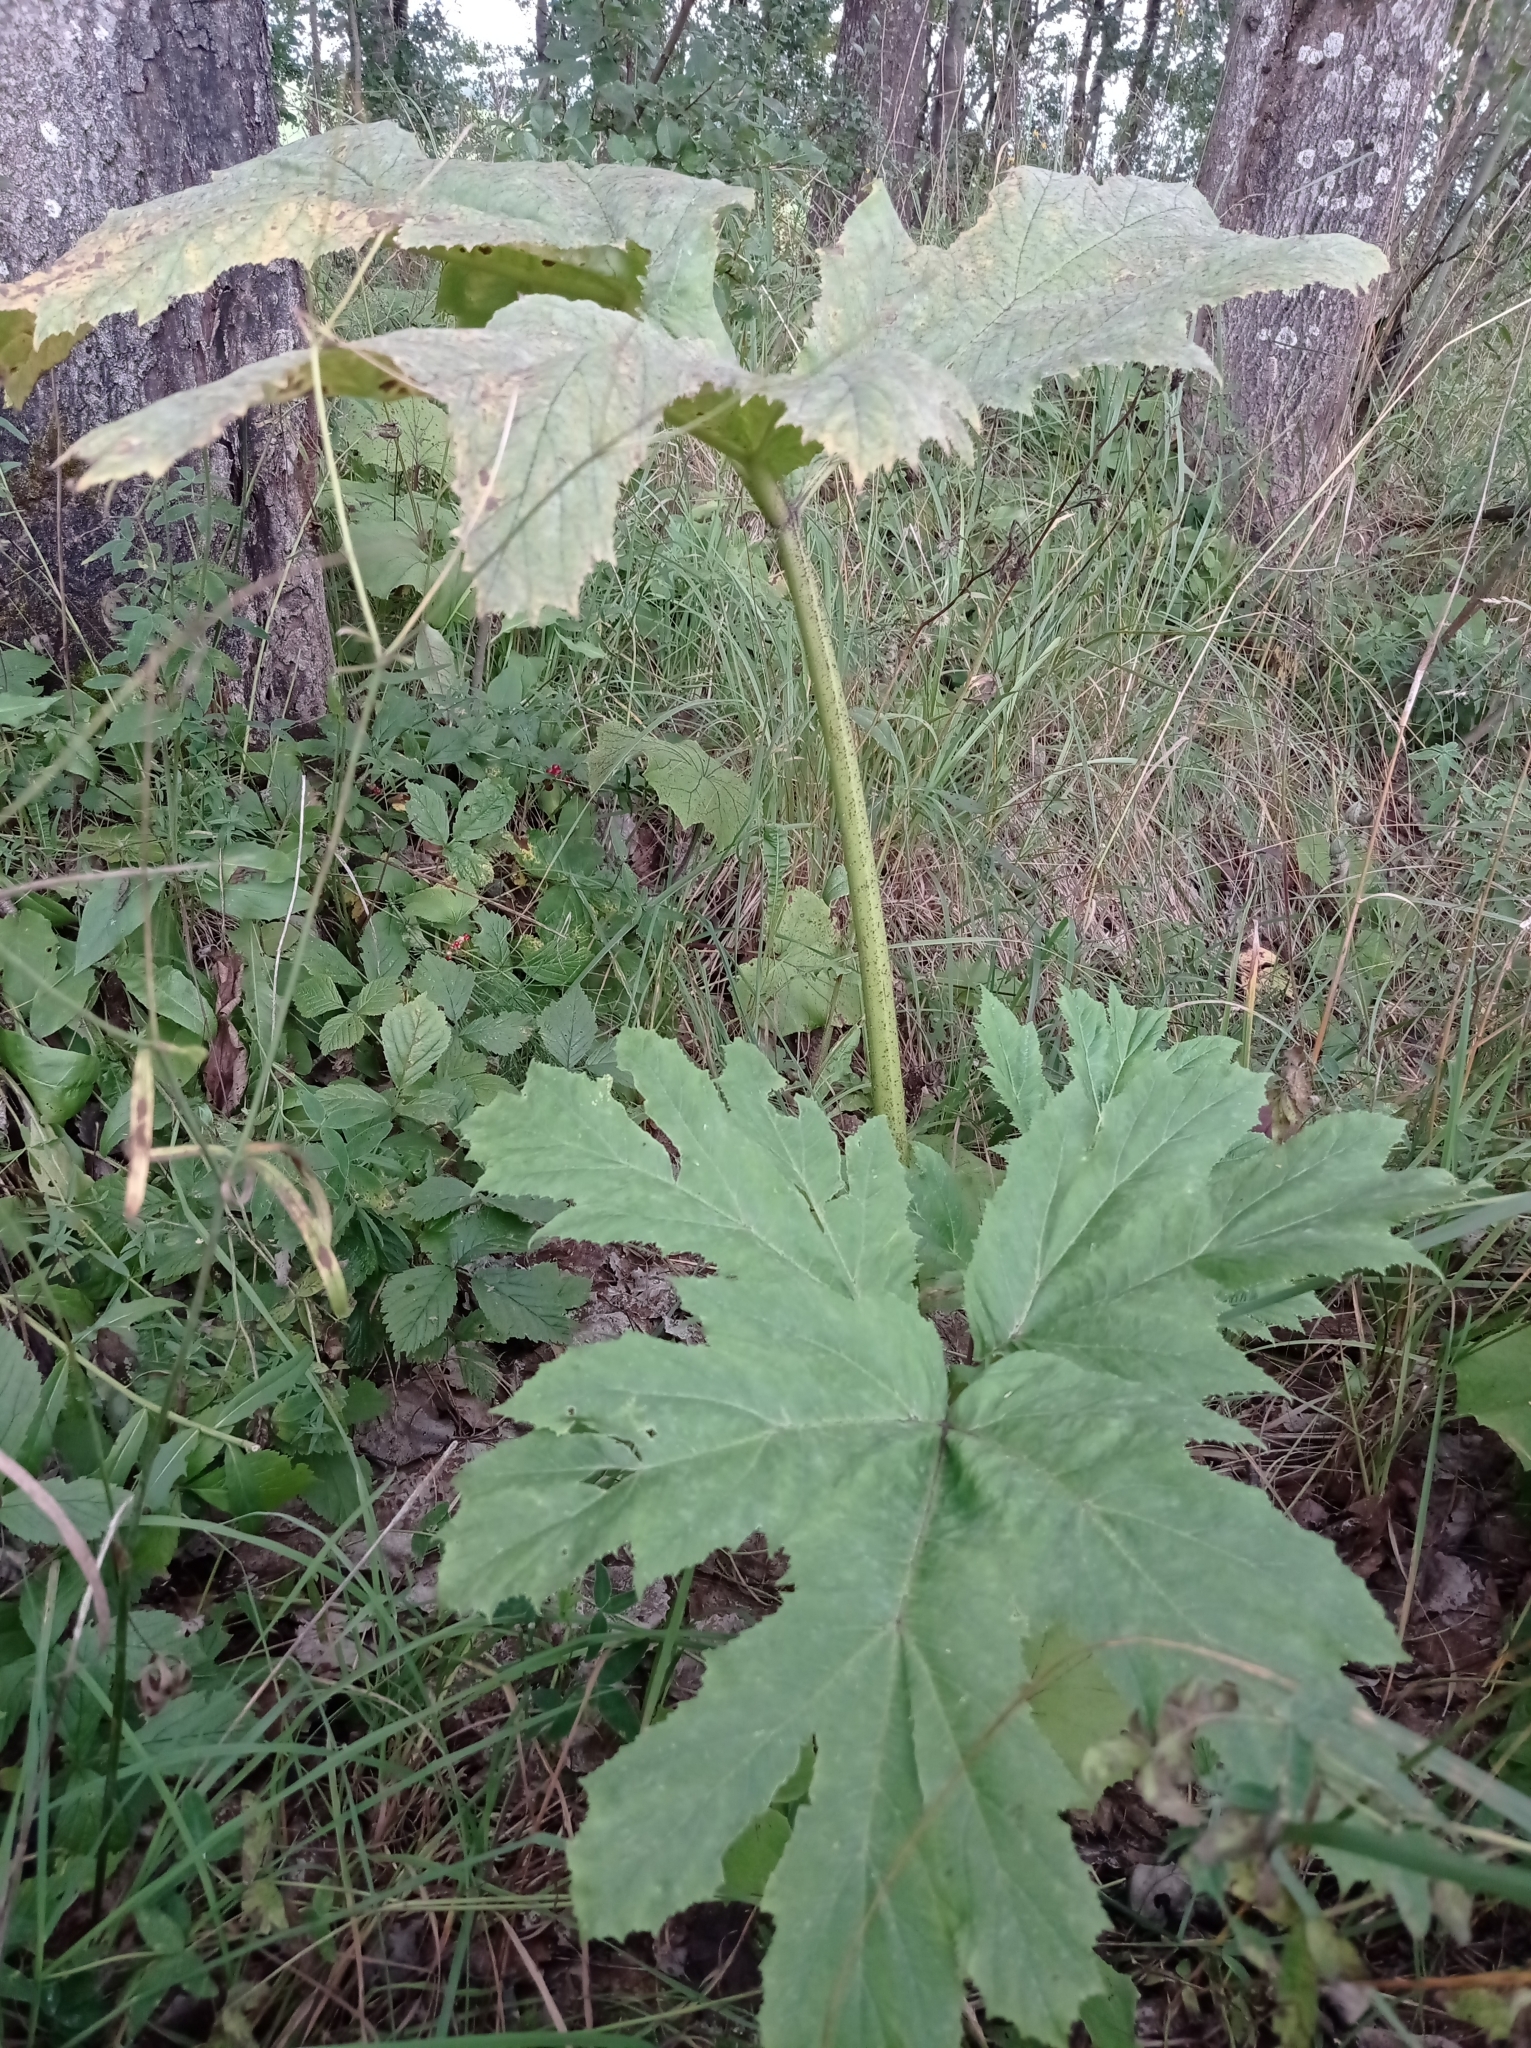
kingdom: Plantae
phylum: Tracheophyta
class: Magnoliopsida
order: Apiales
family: Apiaceae
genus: Heracleum
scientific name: Heracleum sosnowskyi
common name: Sosnowsky's hogweed
